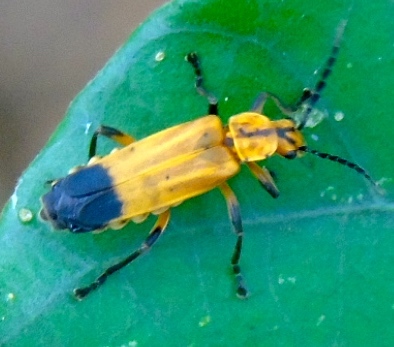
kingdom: Animalia
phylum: Arthropoda
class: Insecta
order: Coleoptera
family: Cantharidae
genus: Daiphron
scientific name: Daiphron proteum
